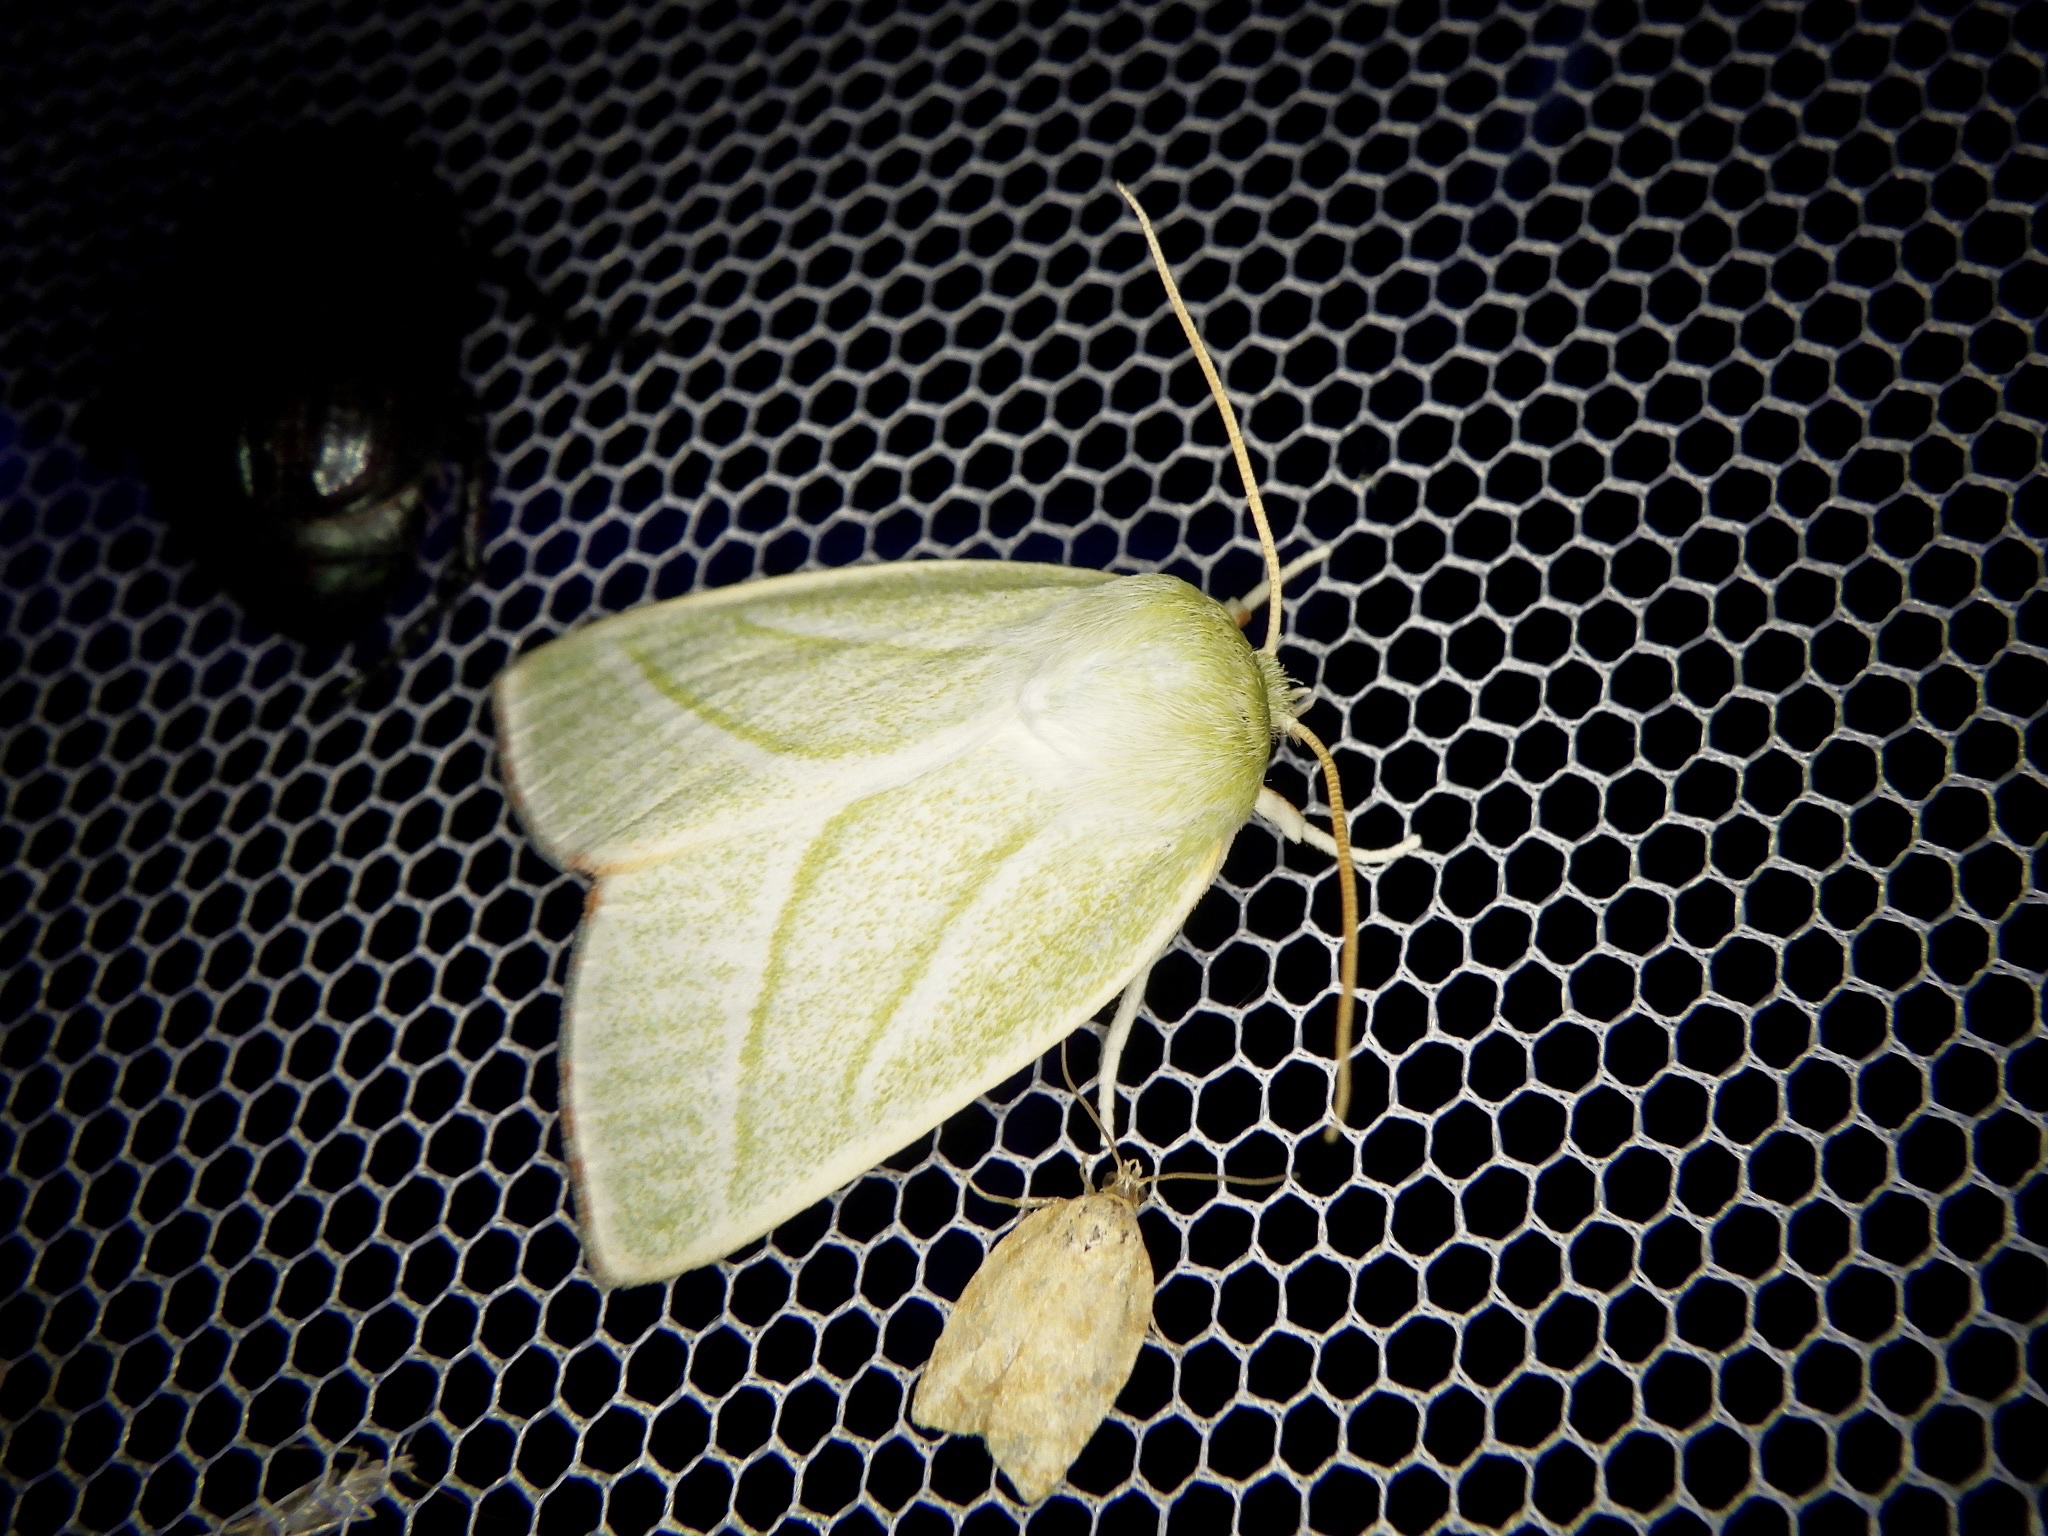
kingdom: Animalia
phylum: Arthropoda
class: Insecta
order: Lepidoptera
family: Nolidae
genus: Pseudoips
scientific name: Pseudoips sylpha
